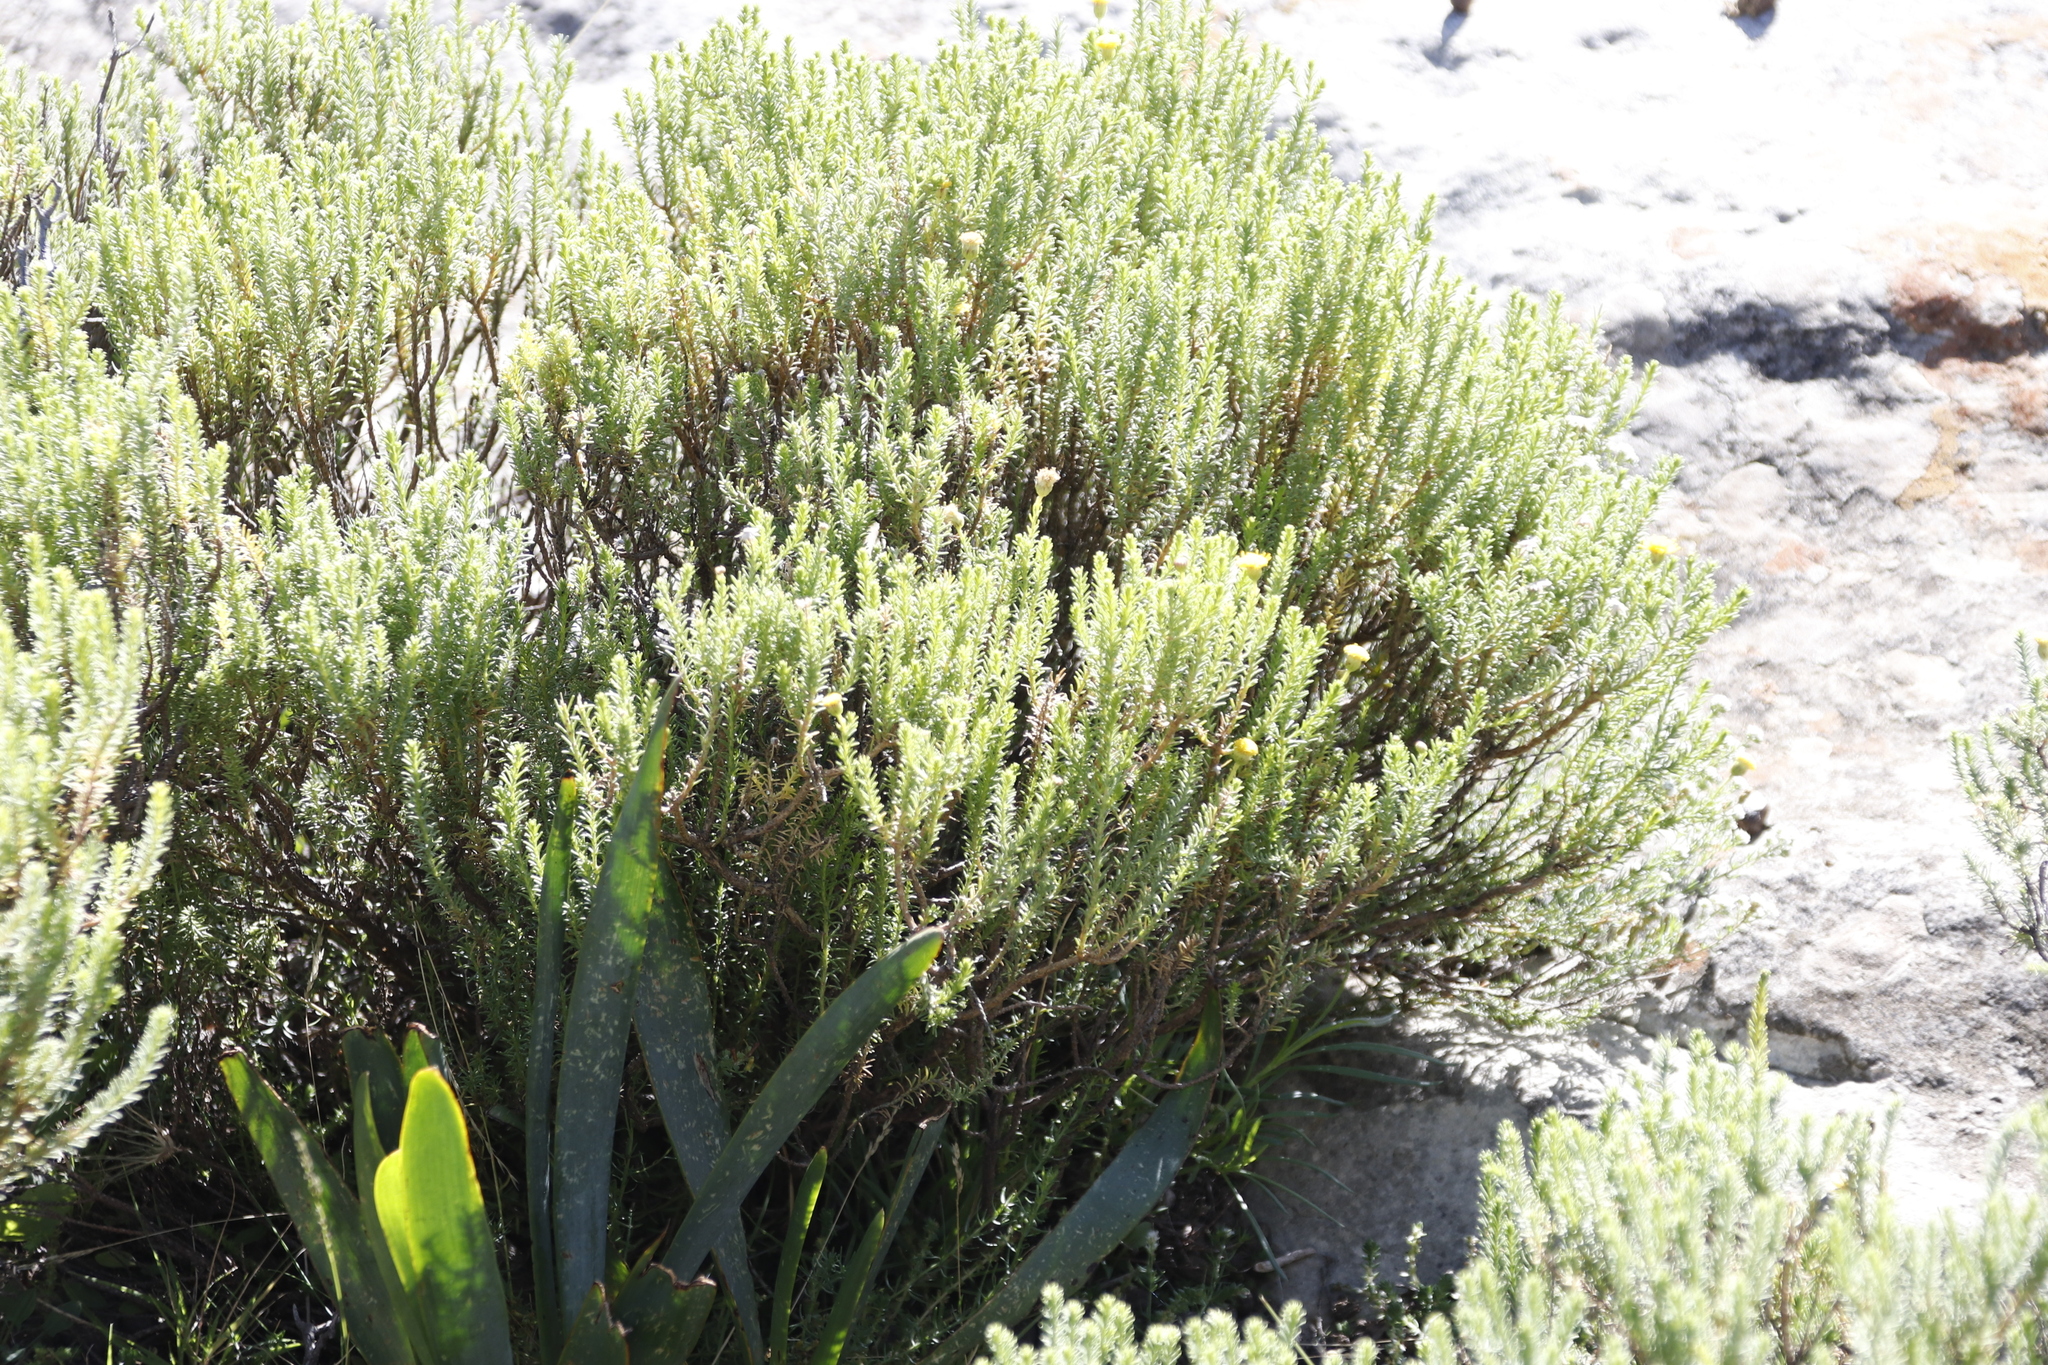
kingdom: Plantae
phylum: Tracheophyta
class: Magnoliopsida
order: Asterales
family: Asteraceae
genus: Chrysocoma
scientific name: Chrysocoma ciliata
